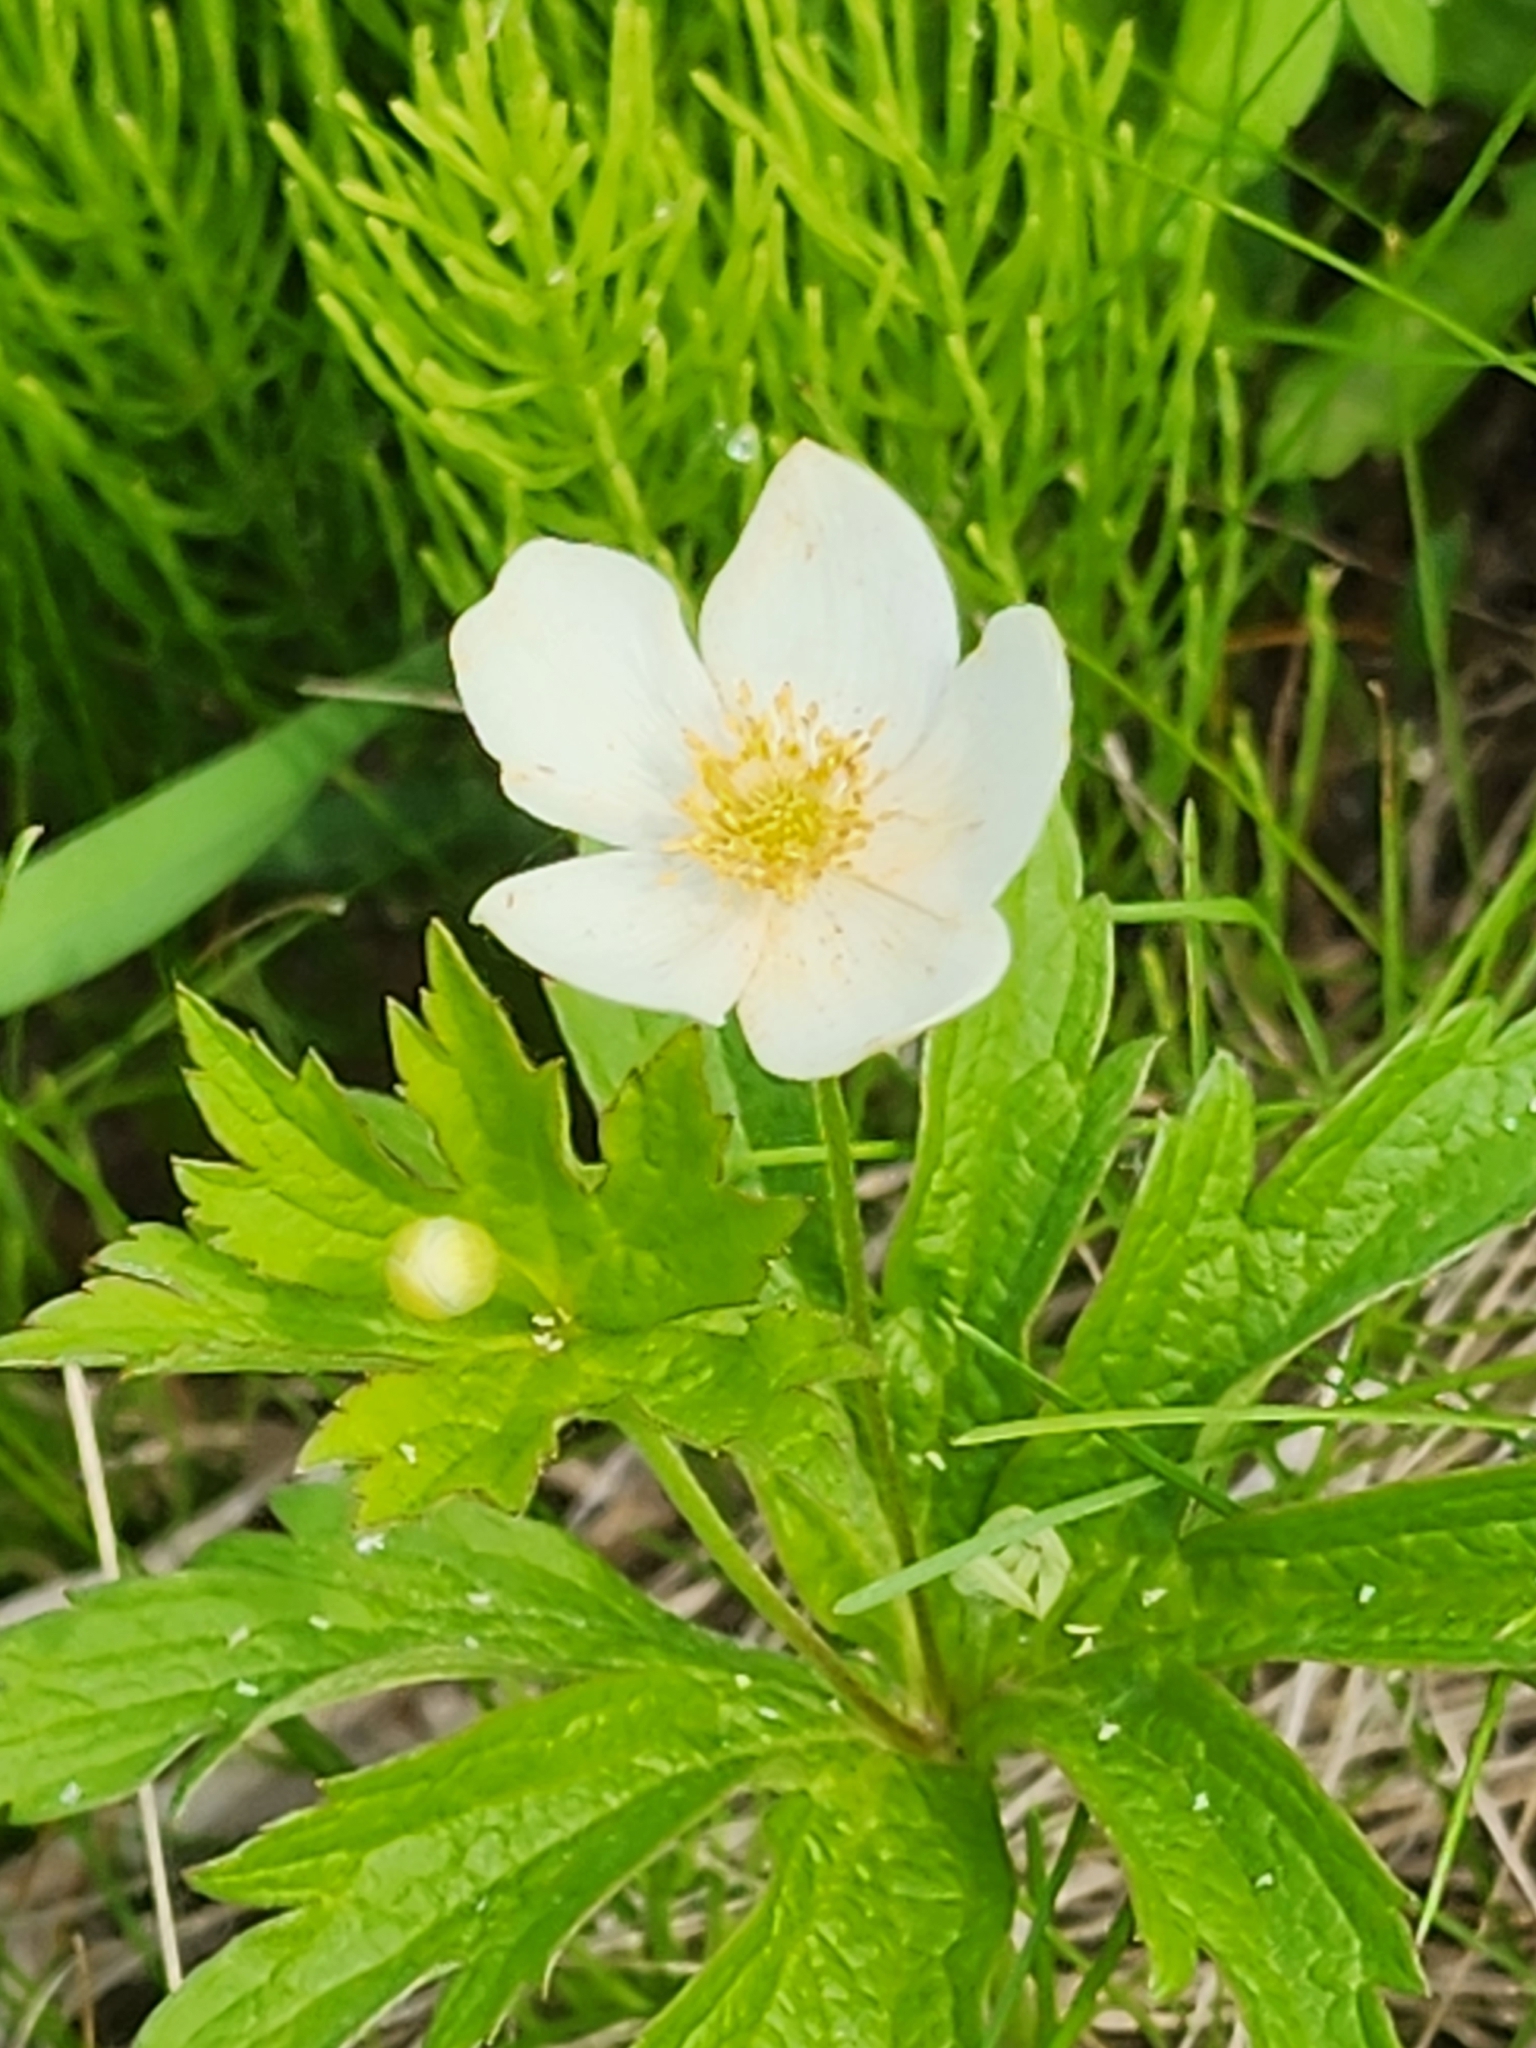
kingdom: Plantae
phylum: Tracheophyta
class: Magnoliopsida
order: Ranunculales
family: Ranunculaceae
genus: Anemonastrum
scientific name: Anemonastrum canadense
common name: Canada anemone
